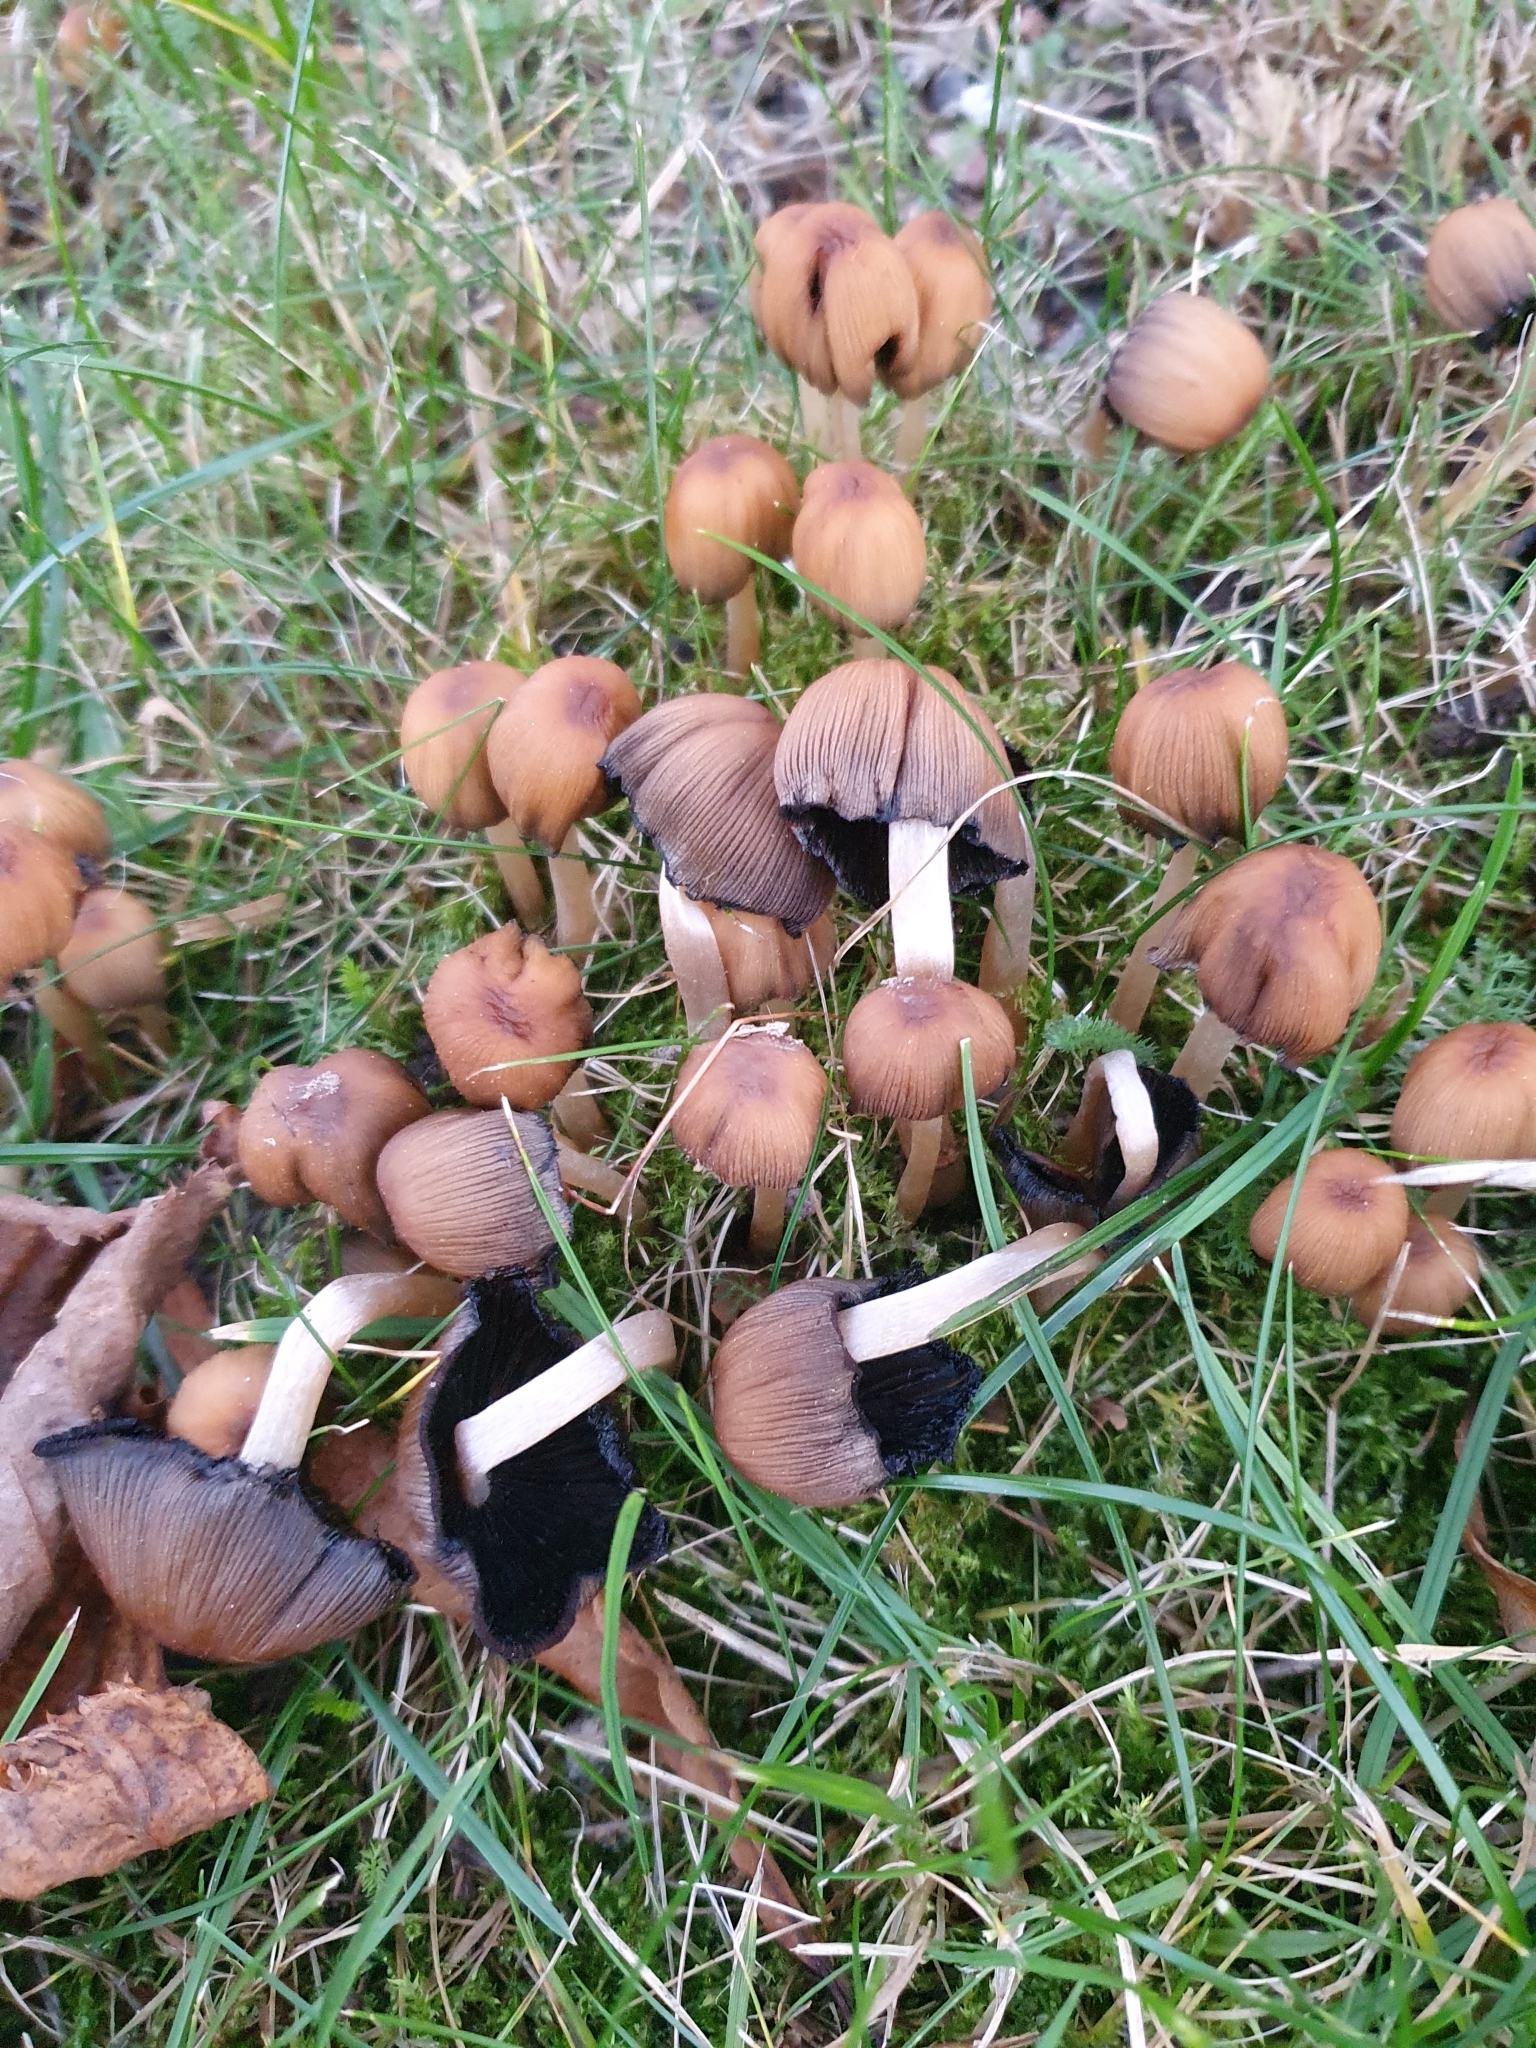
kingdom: Fungi
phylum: Basidiomycota
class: Agaricomycetes
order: Agaricales
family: Psathyrellaceae
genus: Coprinellus
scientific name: Coprinellus micaceus
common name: Glistening ink-cap
